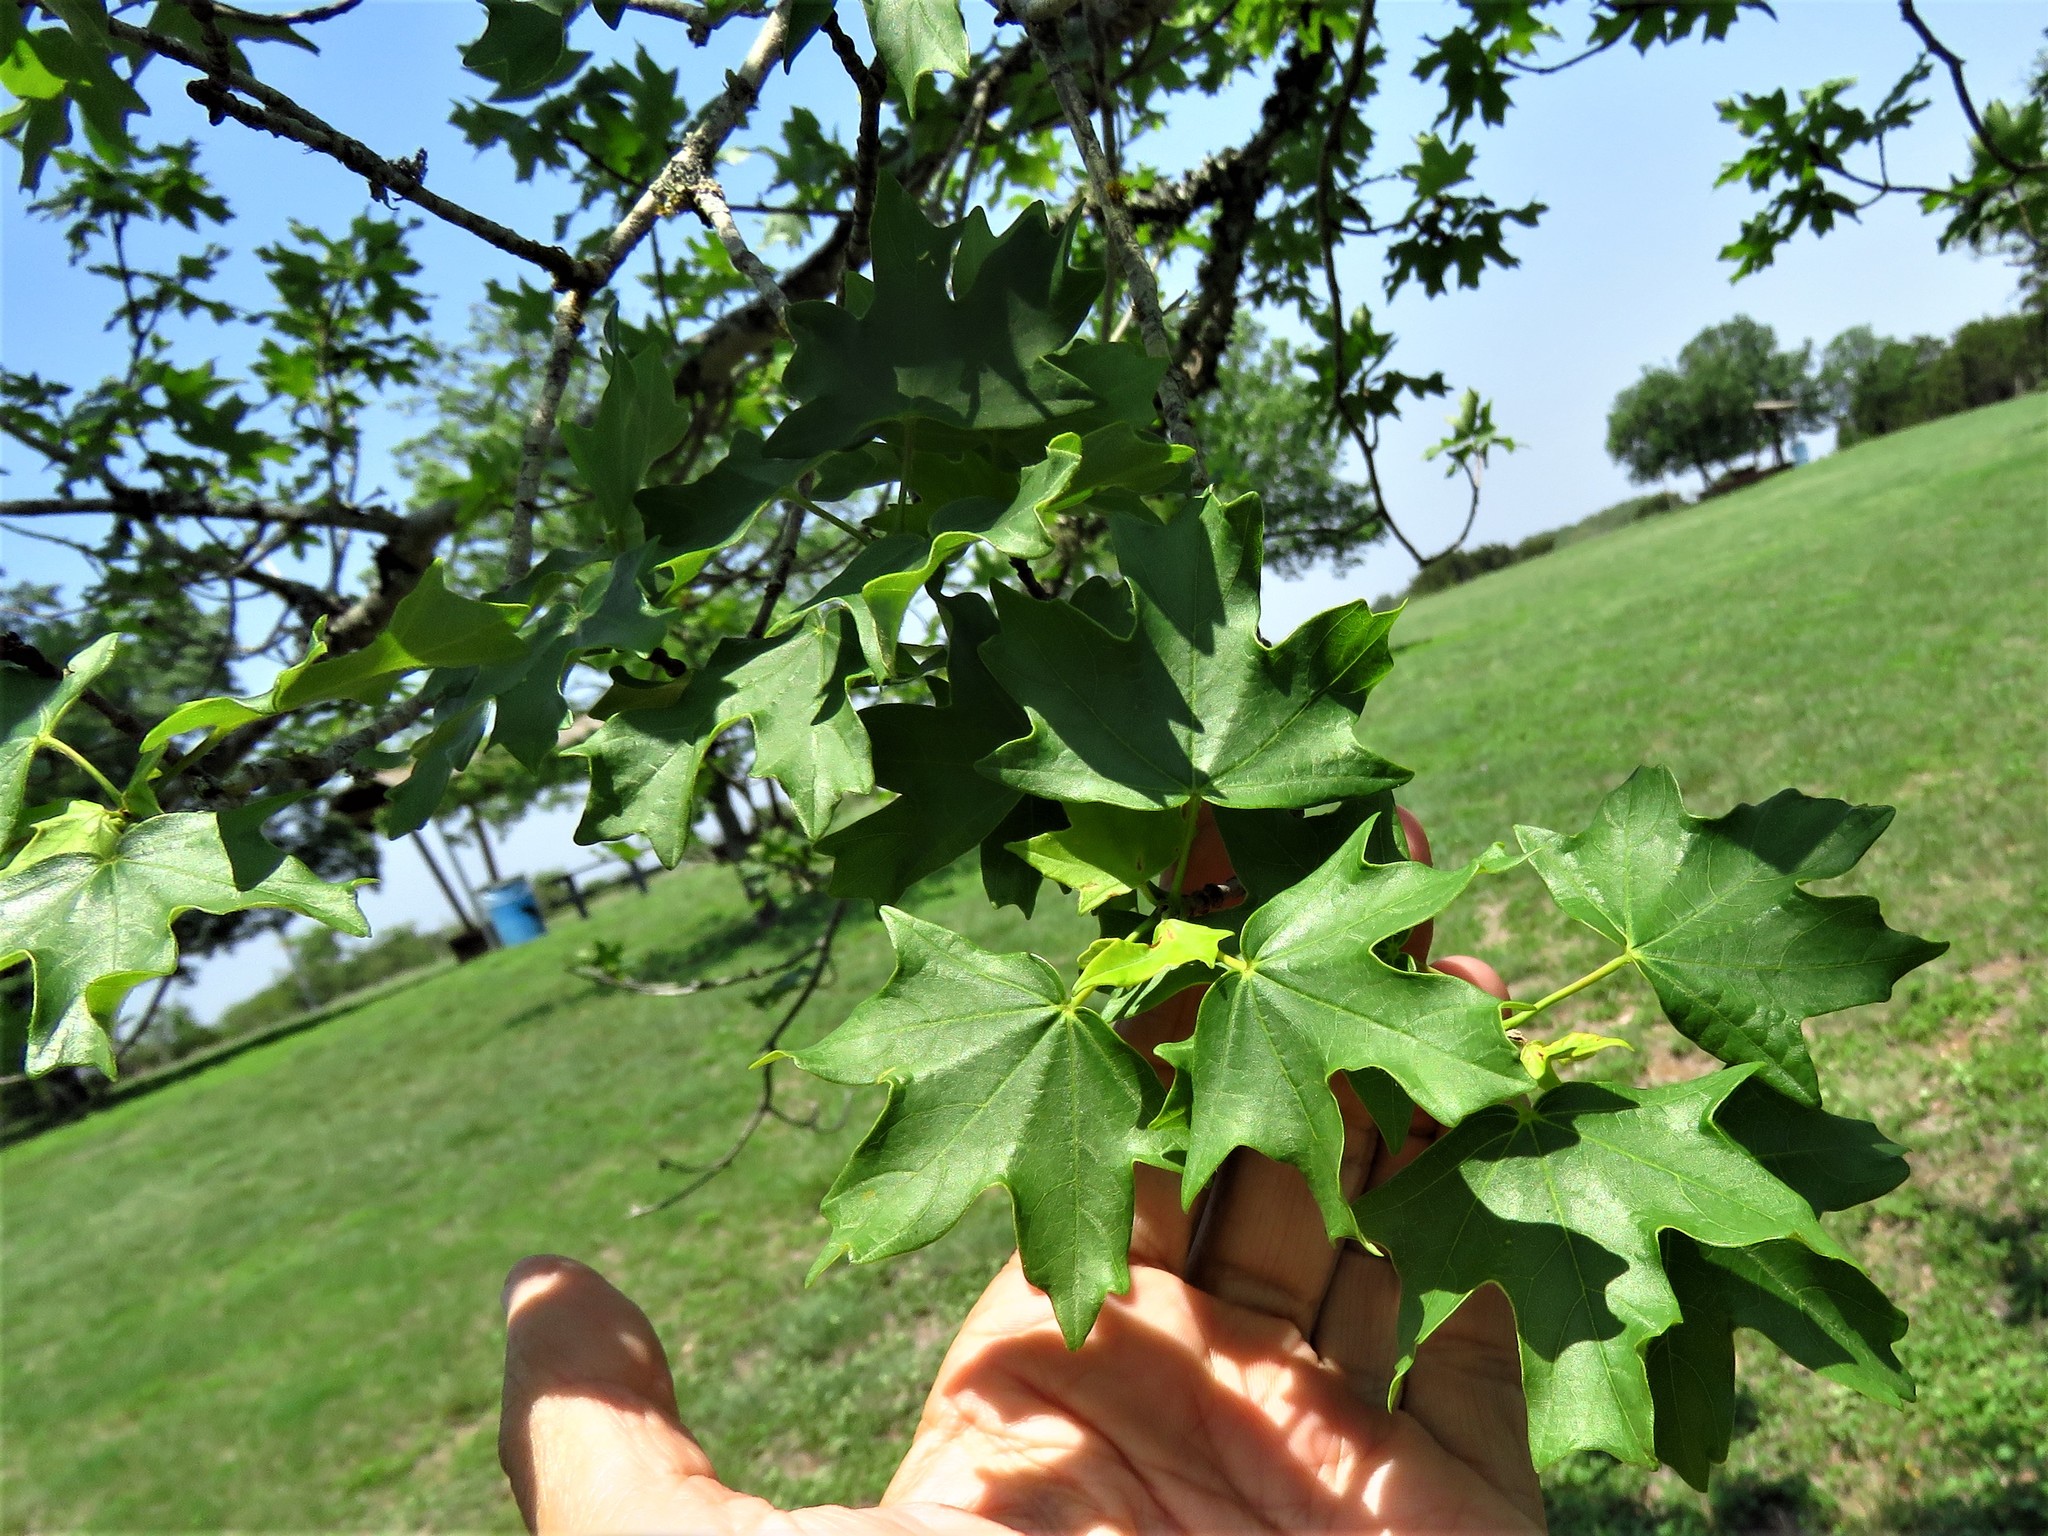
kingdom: Plantae
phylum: Tracheophyta
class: Magnoliopsida
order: Sapindales
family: Sapindaceae
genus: Acer
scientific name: Acer grandidentatum
